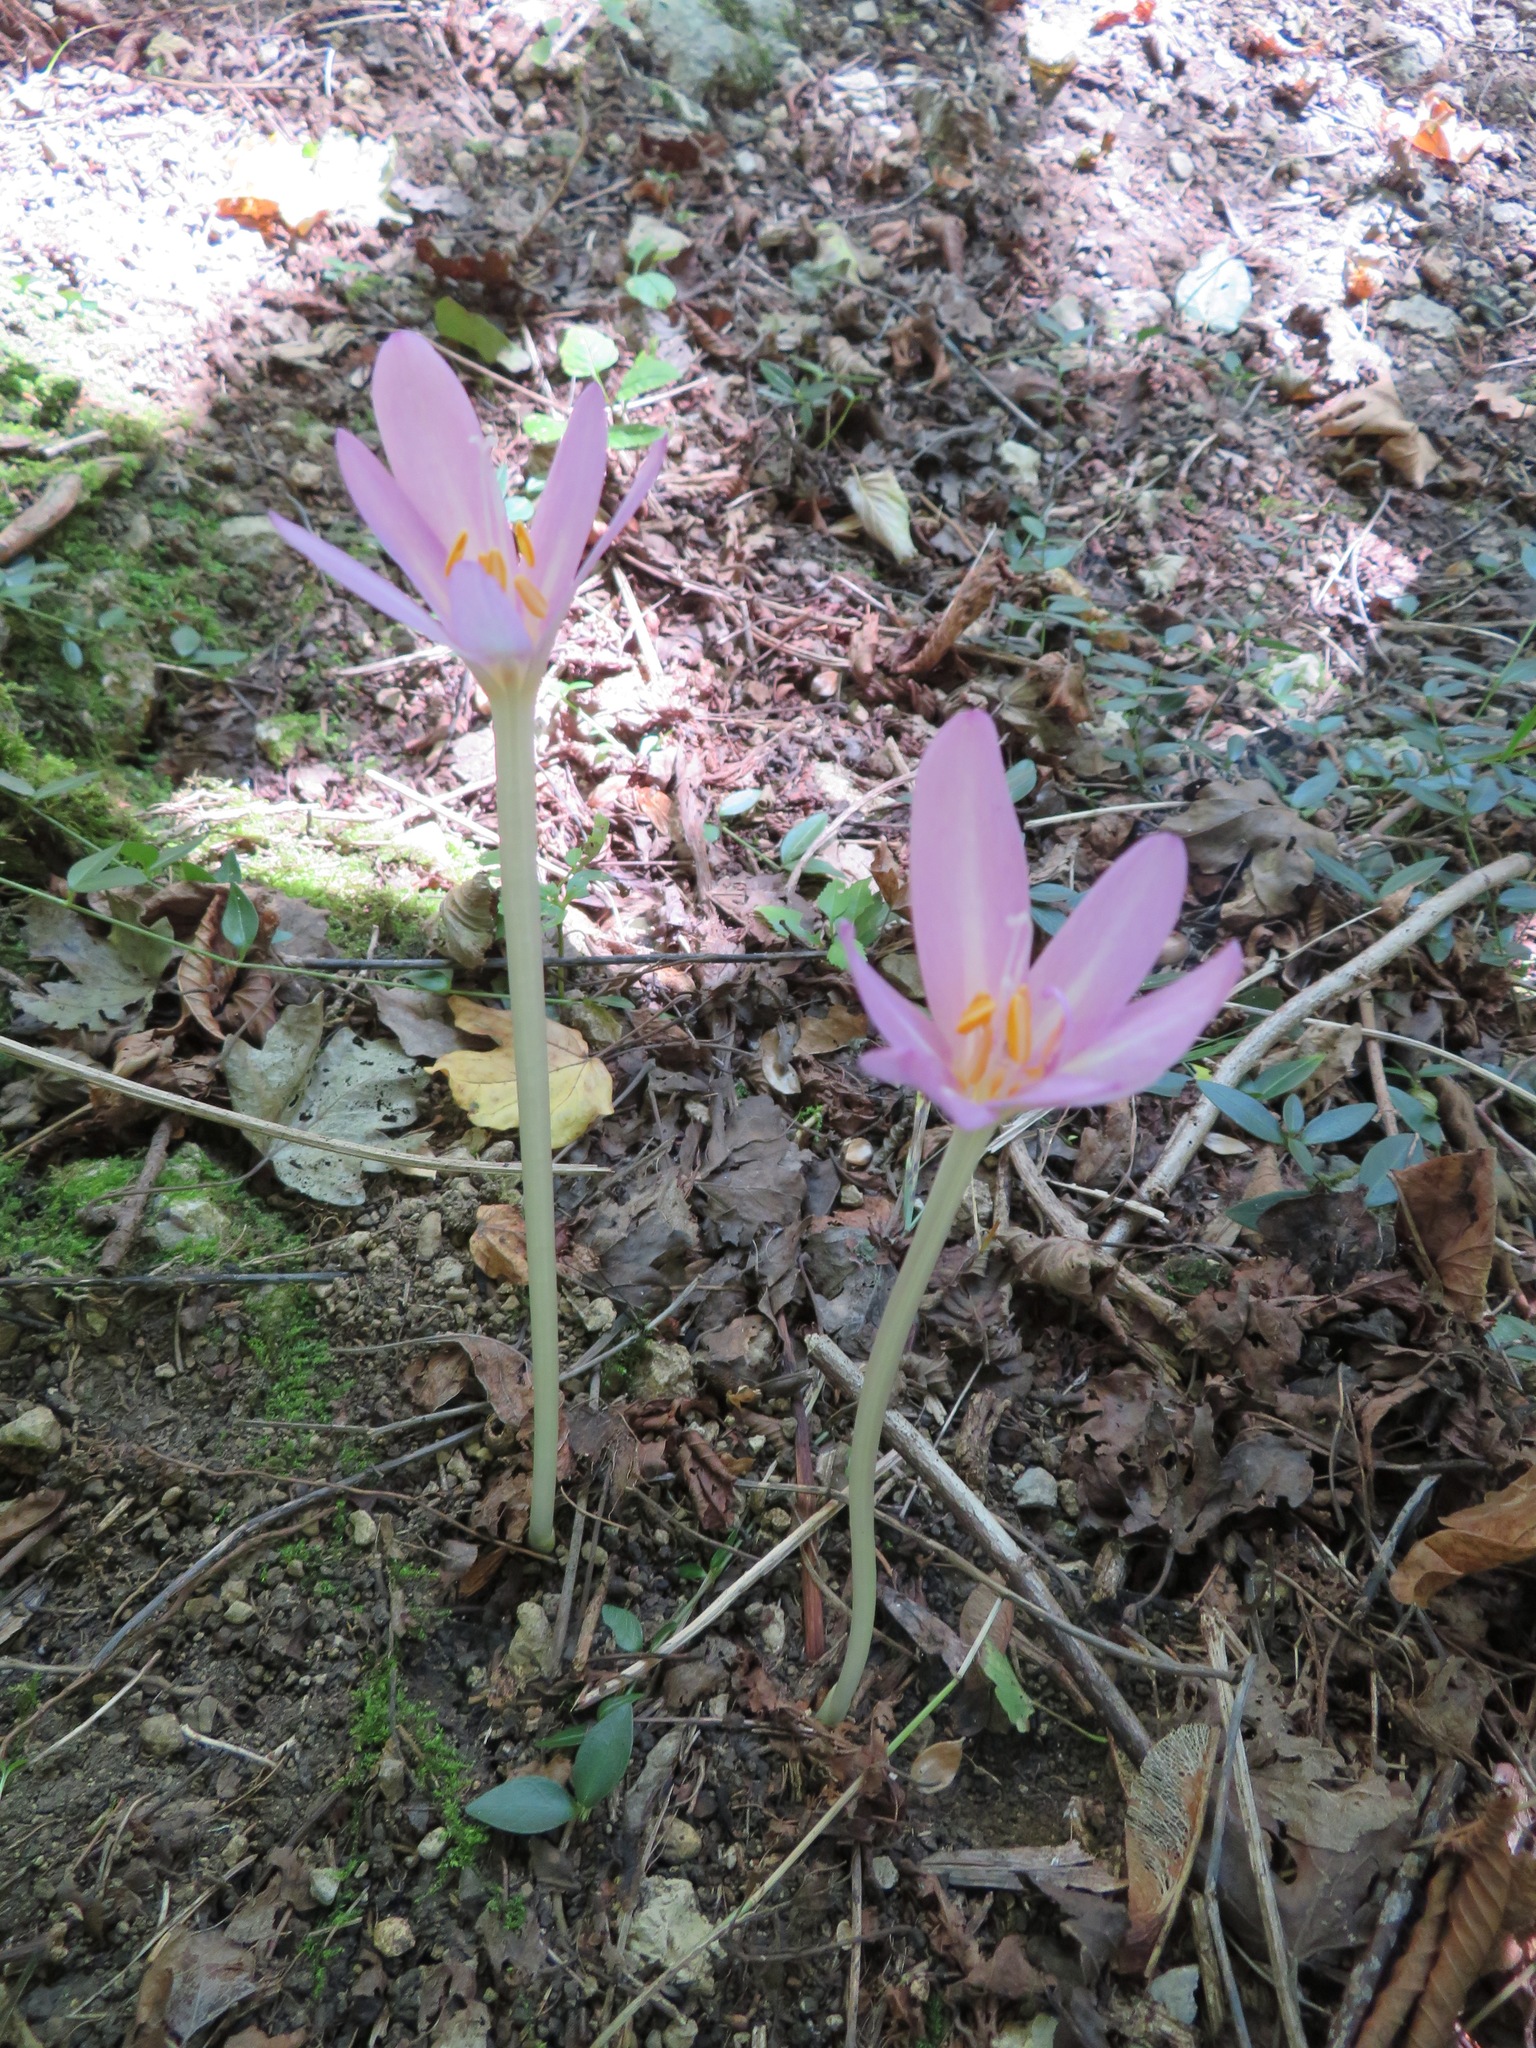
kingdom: Plantae
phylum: Tracheophyta
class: Liliopsida
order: Liliales
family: Colchicaceae
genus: Colchicum
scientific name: Colchicum autumnale
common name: Autumn crocus
